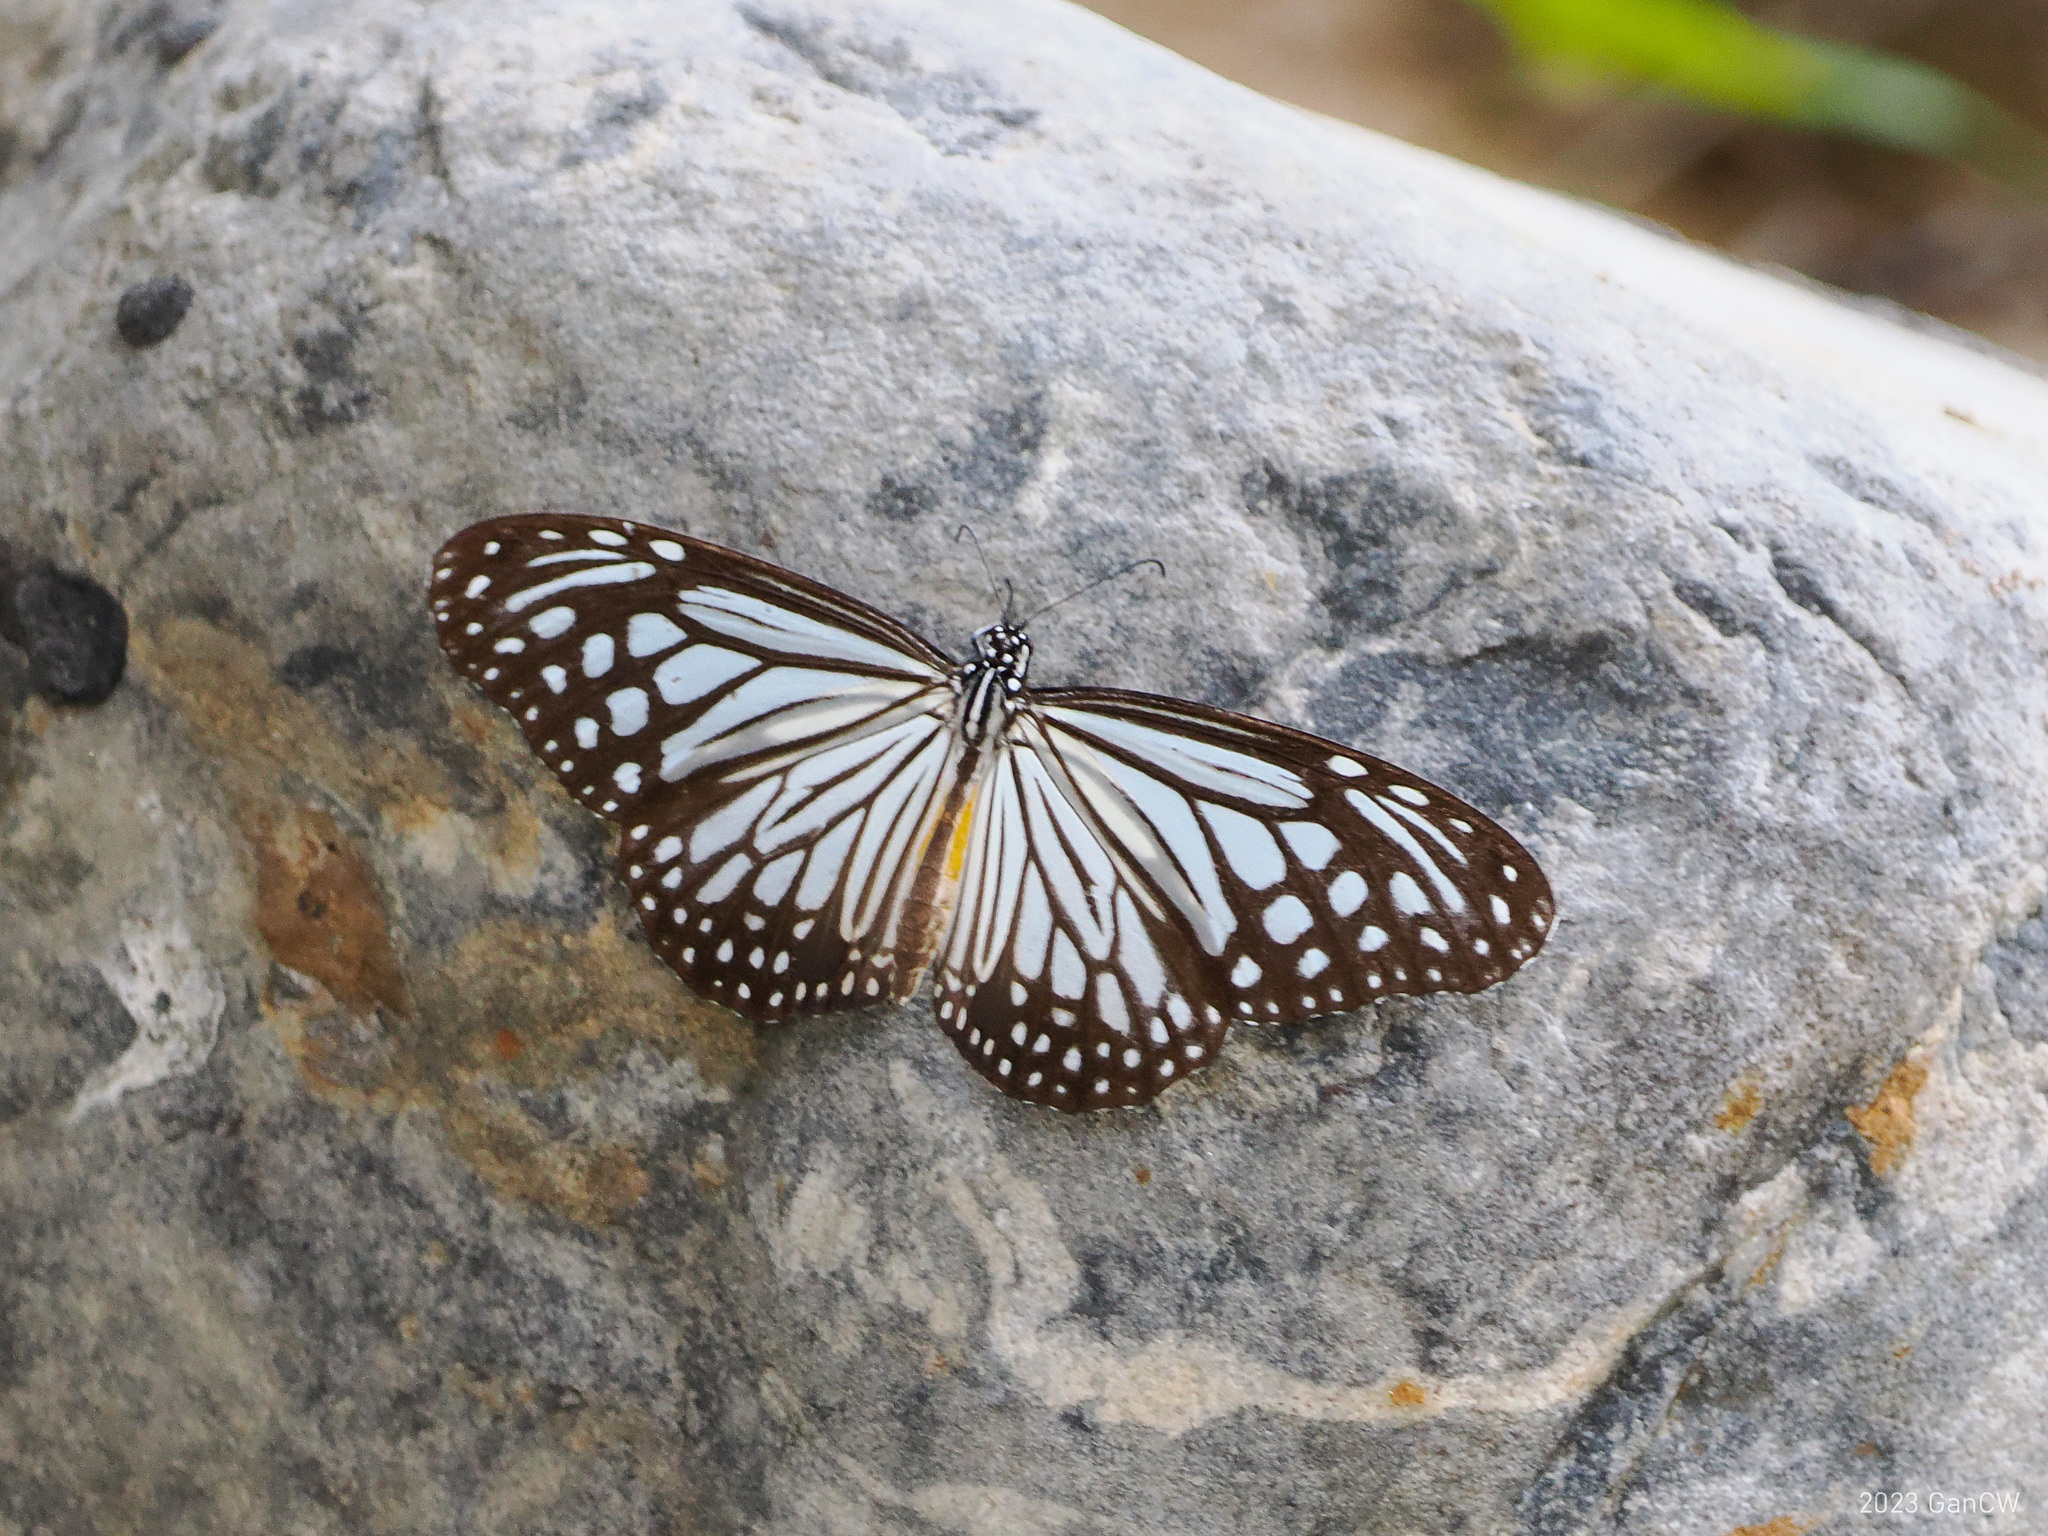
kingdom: Animalia
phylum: Arthropoda
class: Insecta
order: Lepidoptera
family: Nymphalidae
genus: Parantica
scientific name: Parantica aglea
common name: Glassy tiger
